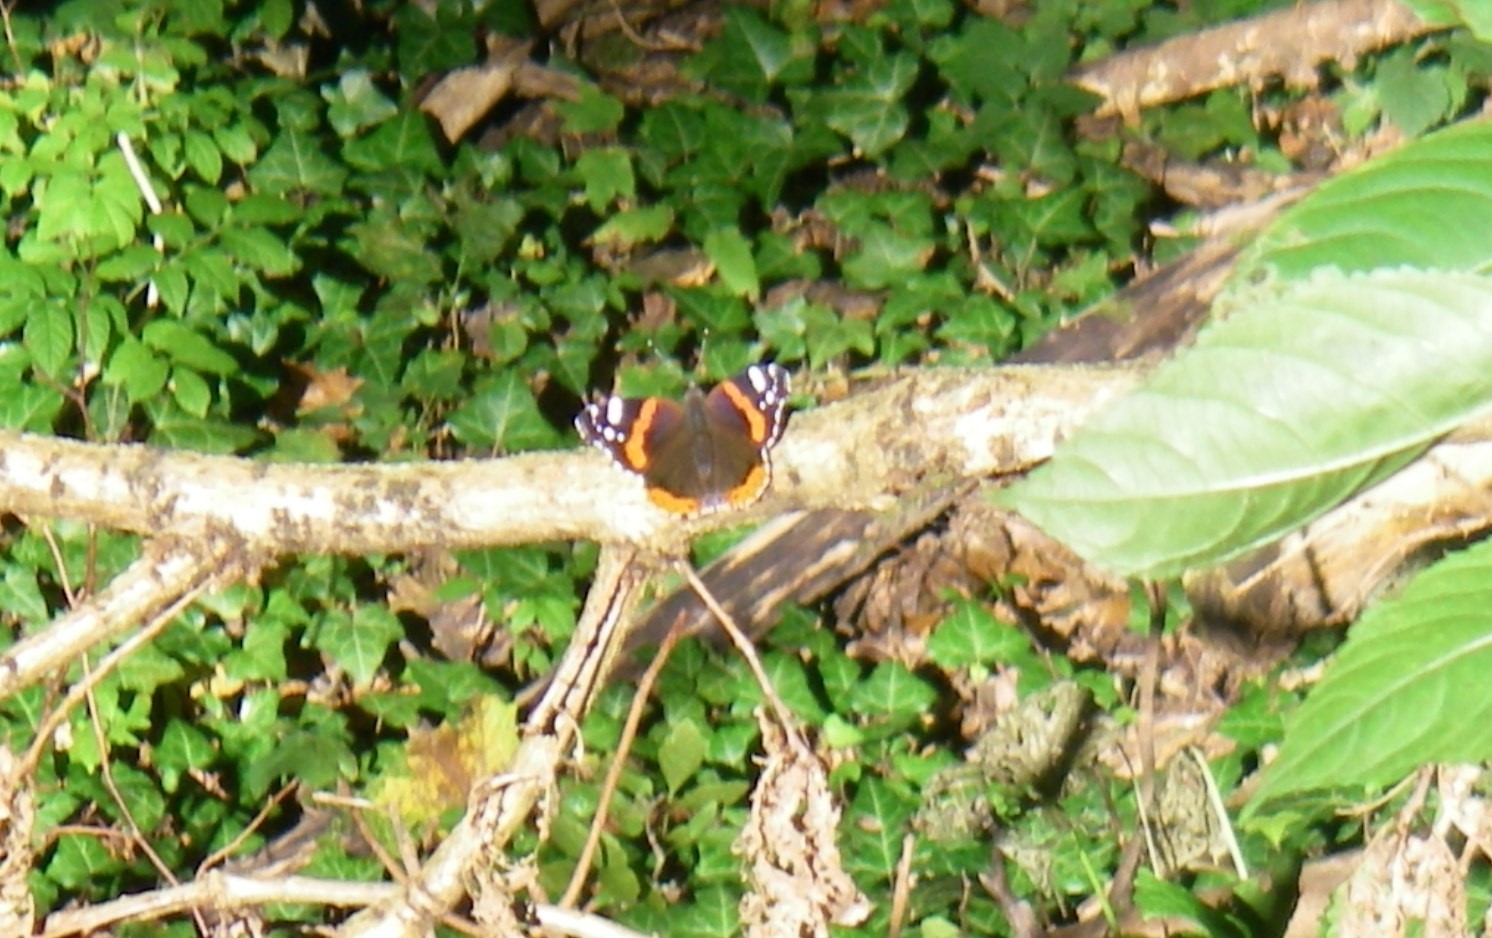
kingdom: Animalia
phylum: Arthropoda
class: Insecta
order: Lepidoptera
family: Nymphalidae
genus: Vanessa
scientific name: Vanessa atalanta
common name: Red admiral
